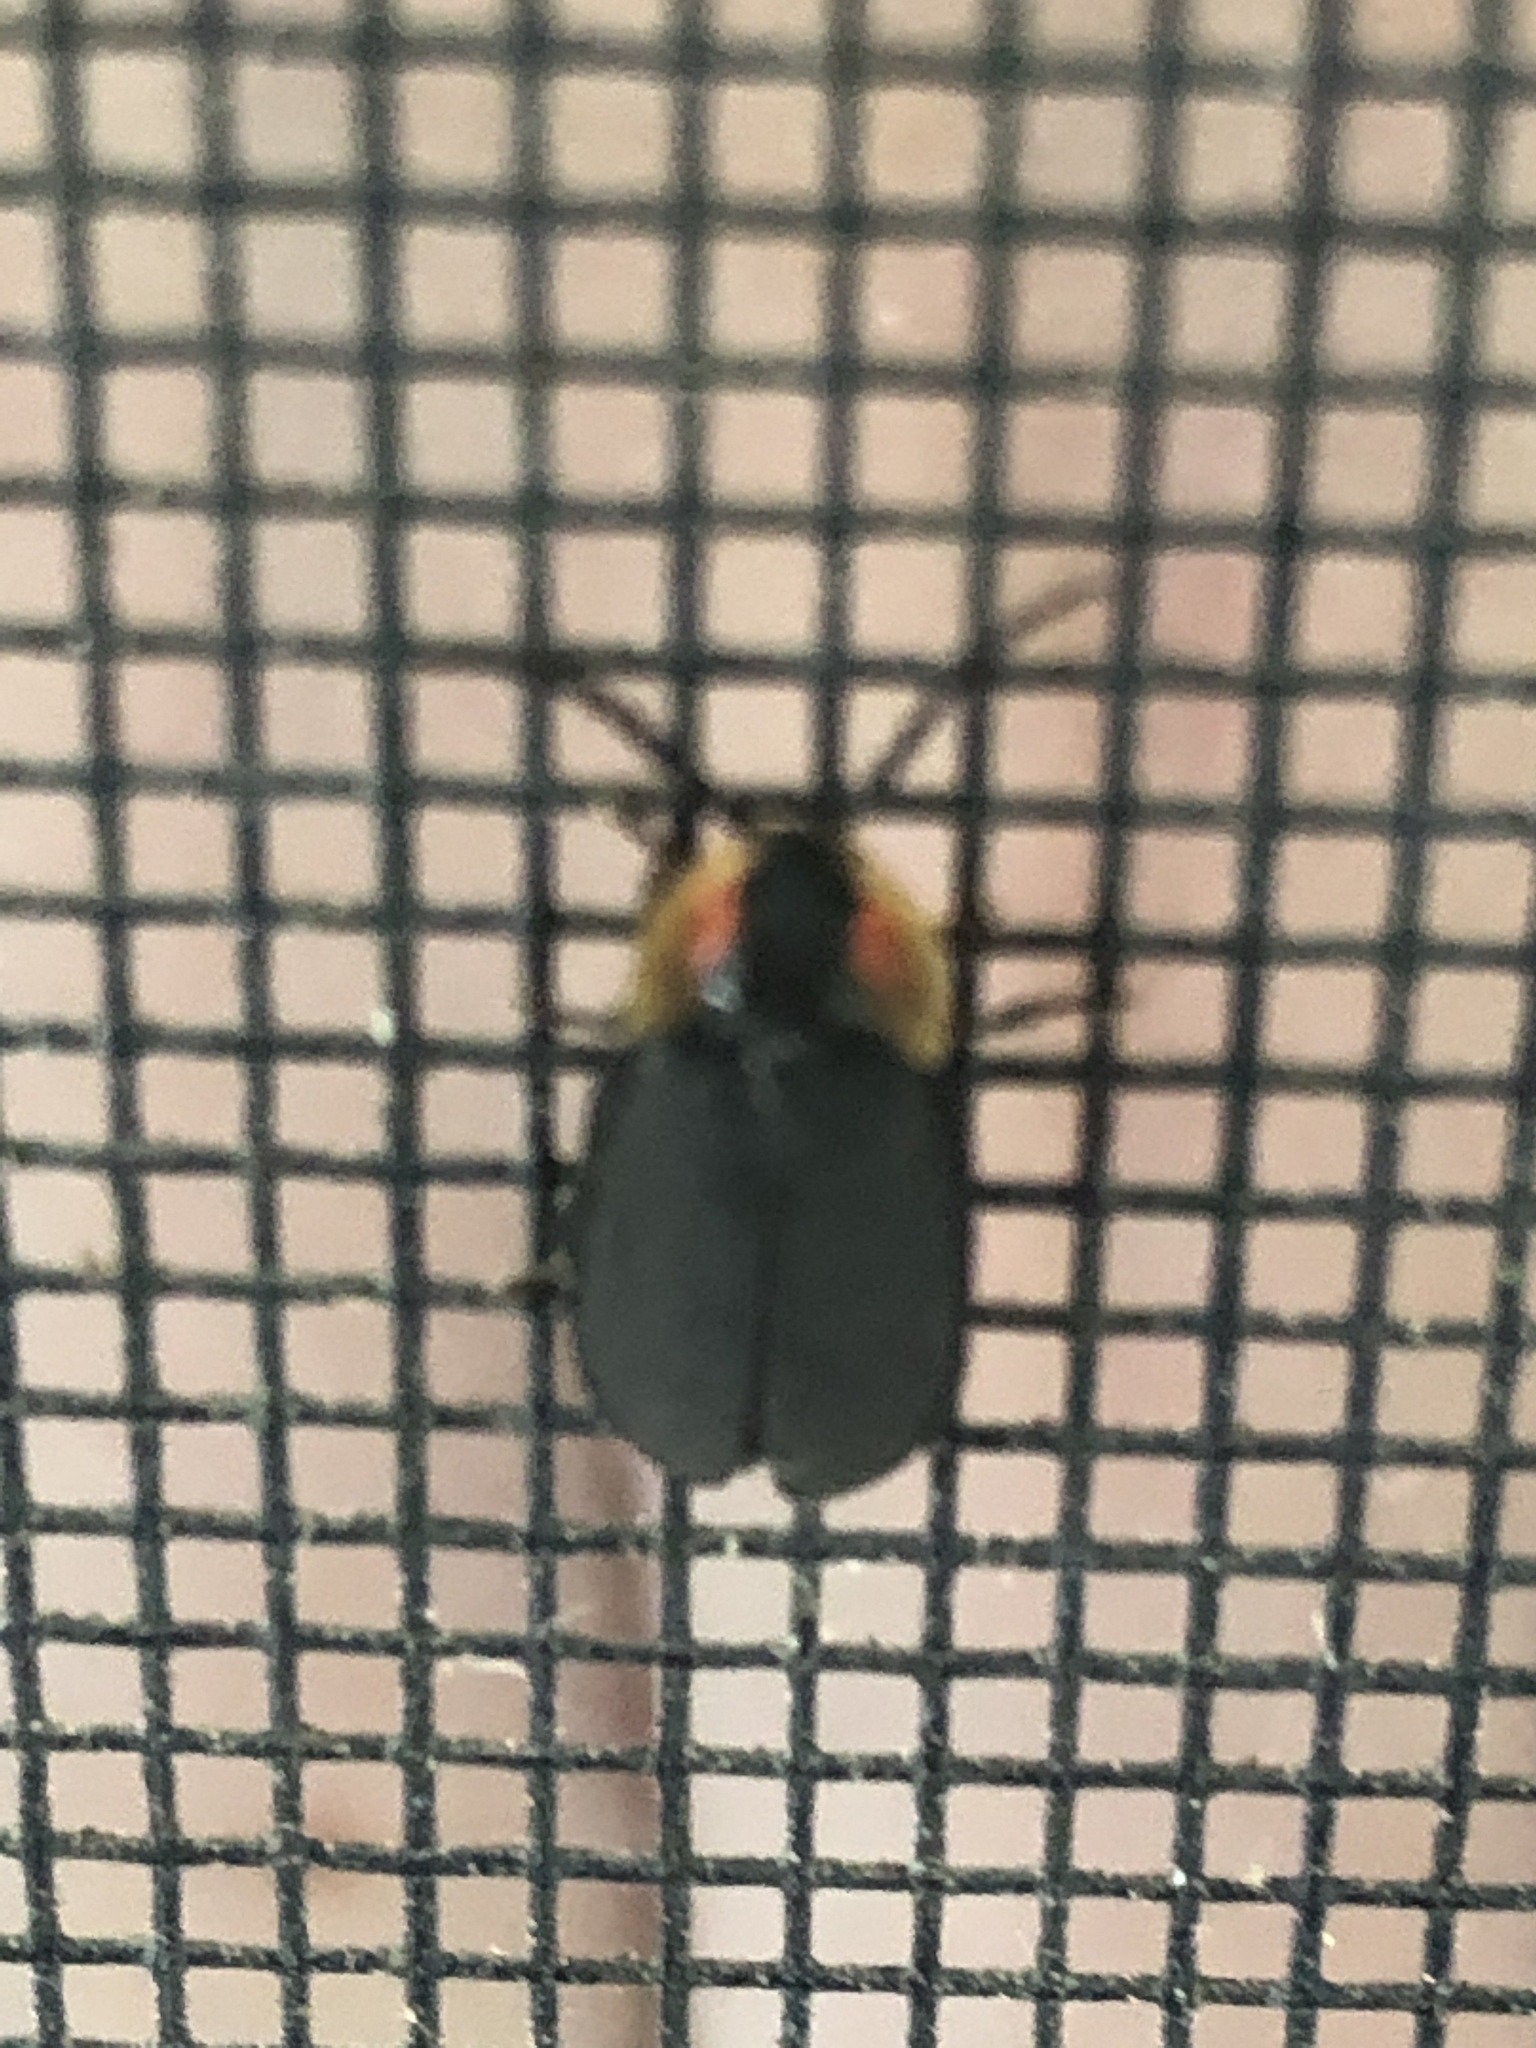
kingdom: Animalia
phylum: Arthropoda
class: Insecta
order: Coleoptera
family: Lampyridae
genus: Lucidota
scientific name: Lucidota atra
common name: Black firefly
